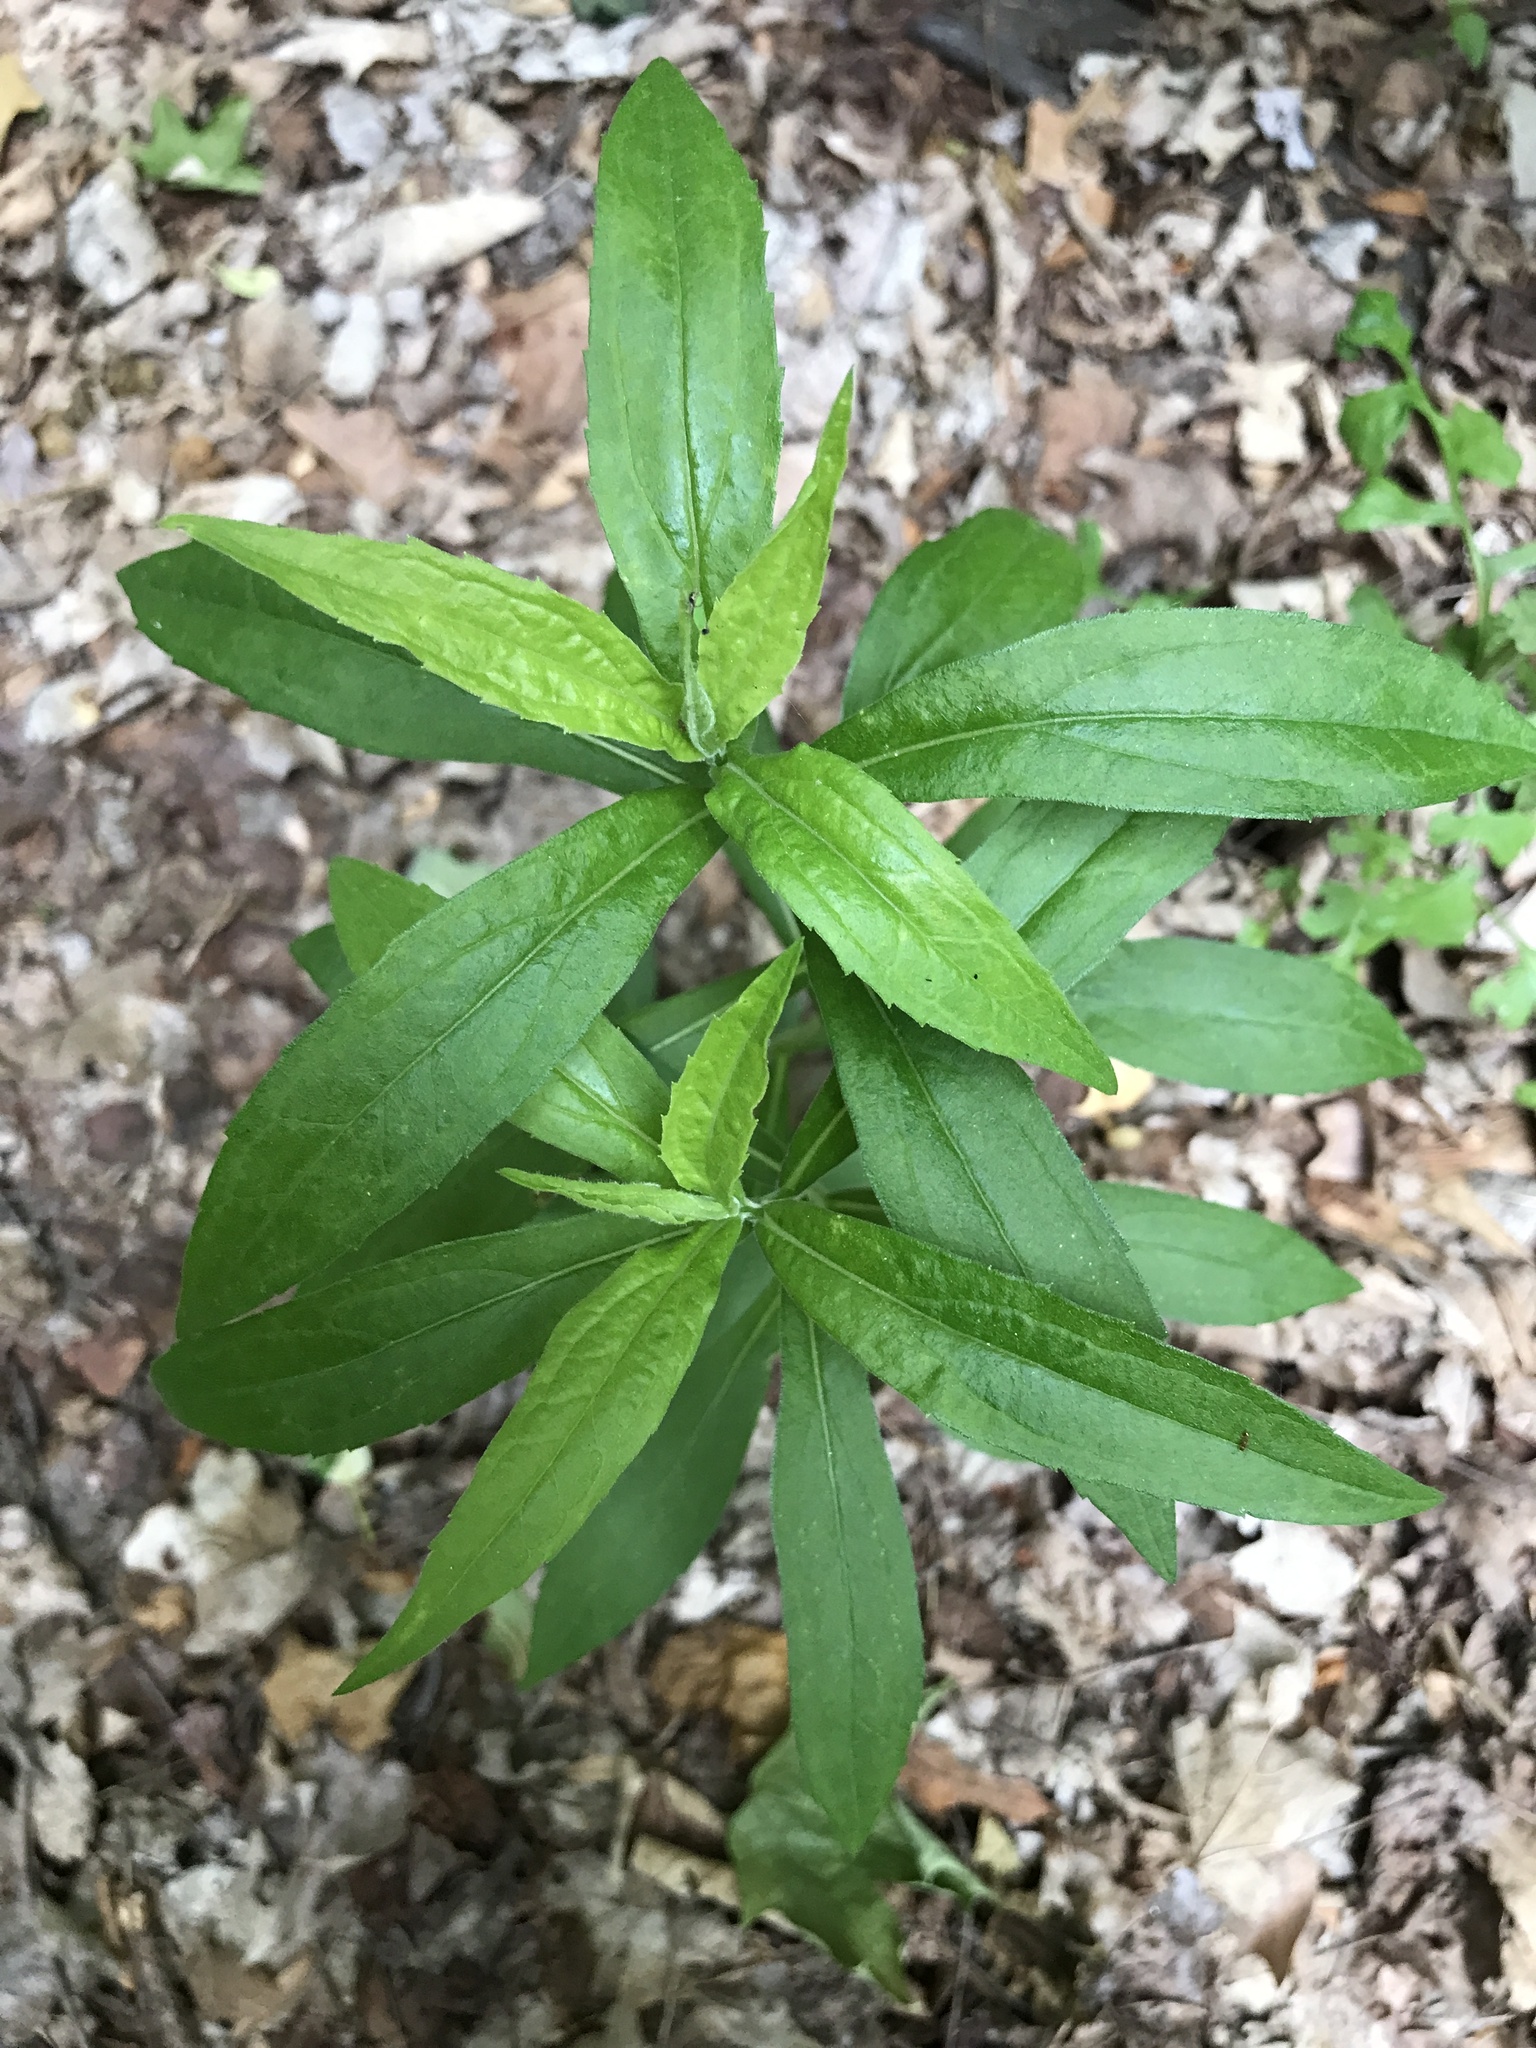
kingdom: Plantae
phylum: Tracheophyta
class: Magnoliopsida
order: Asterales
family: Asteraceae
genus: Solidago
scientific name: Solidago altissima
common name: Late goldenrod
